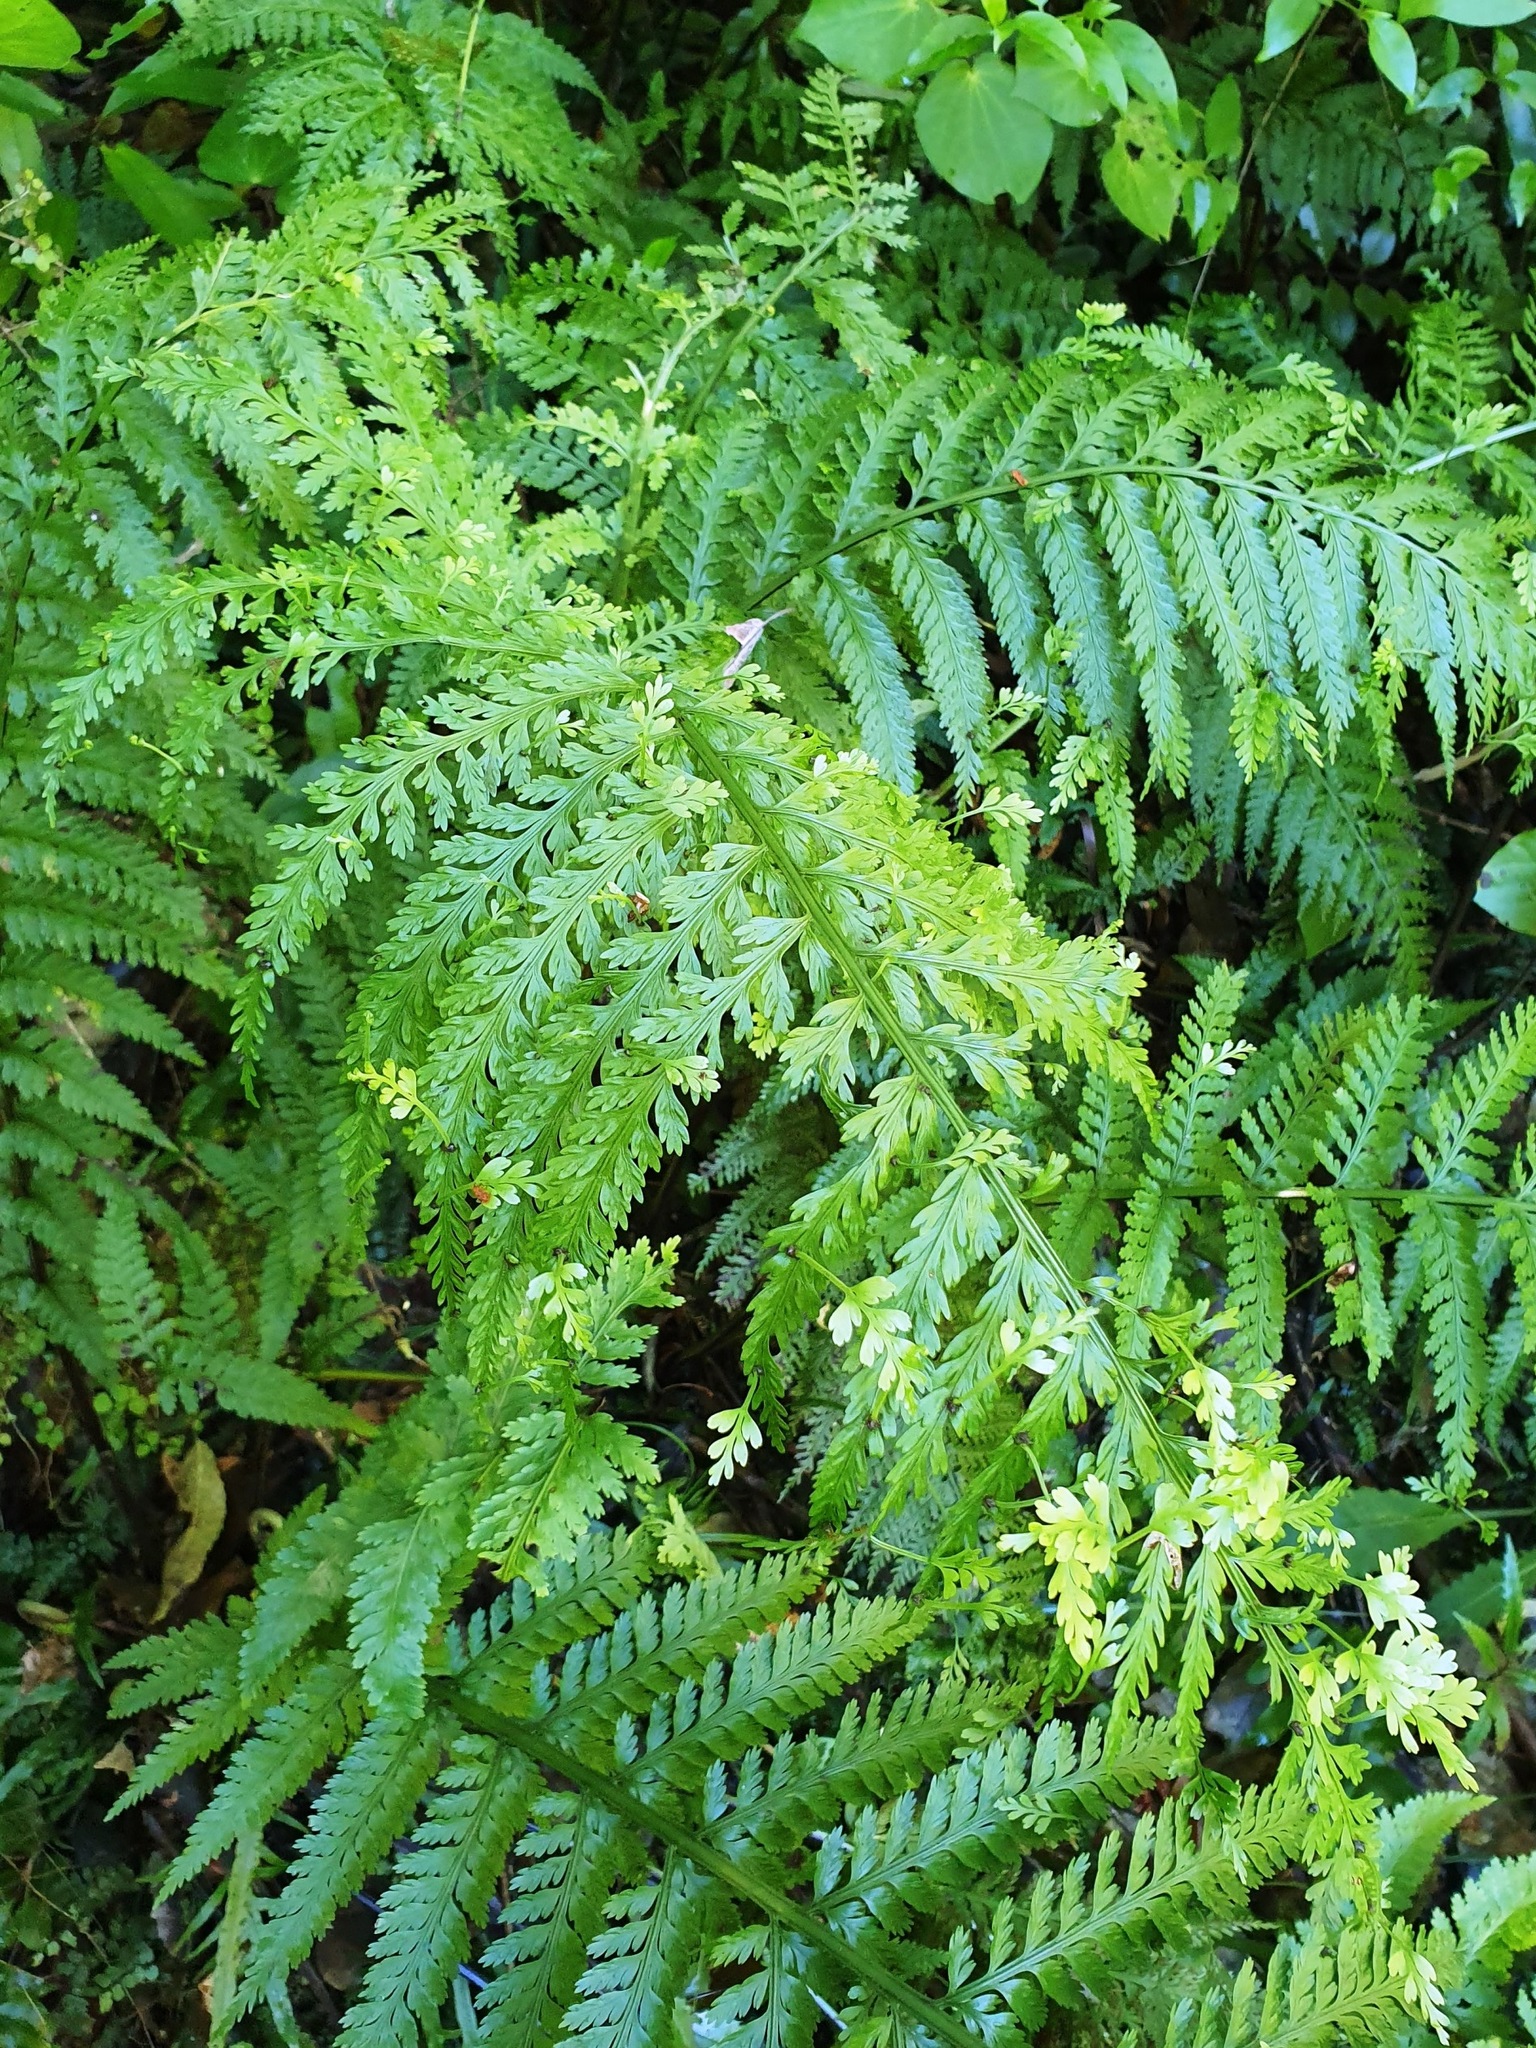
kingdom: Plantae
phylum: Tracheophyta
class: Polypodiopsida
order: Polypodiales
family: Aspleniaceae
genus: Asplenium
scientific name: Asplenium bulbiferum
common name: Mother fern
